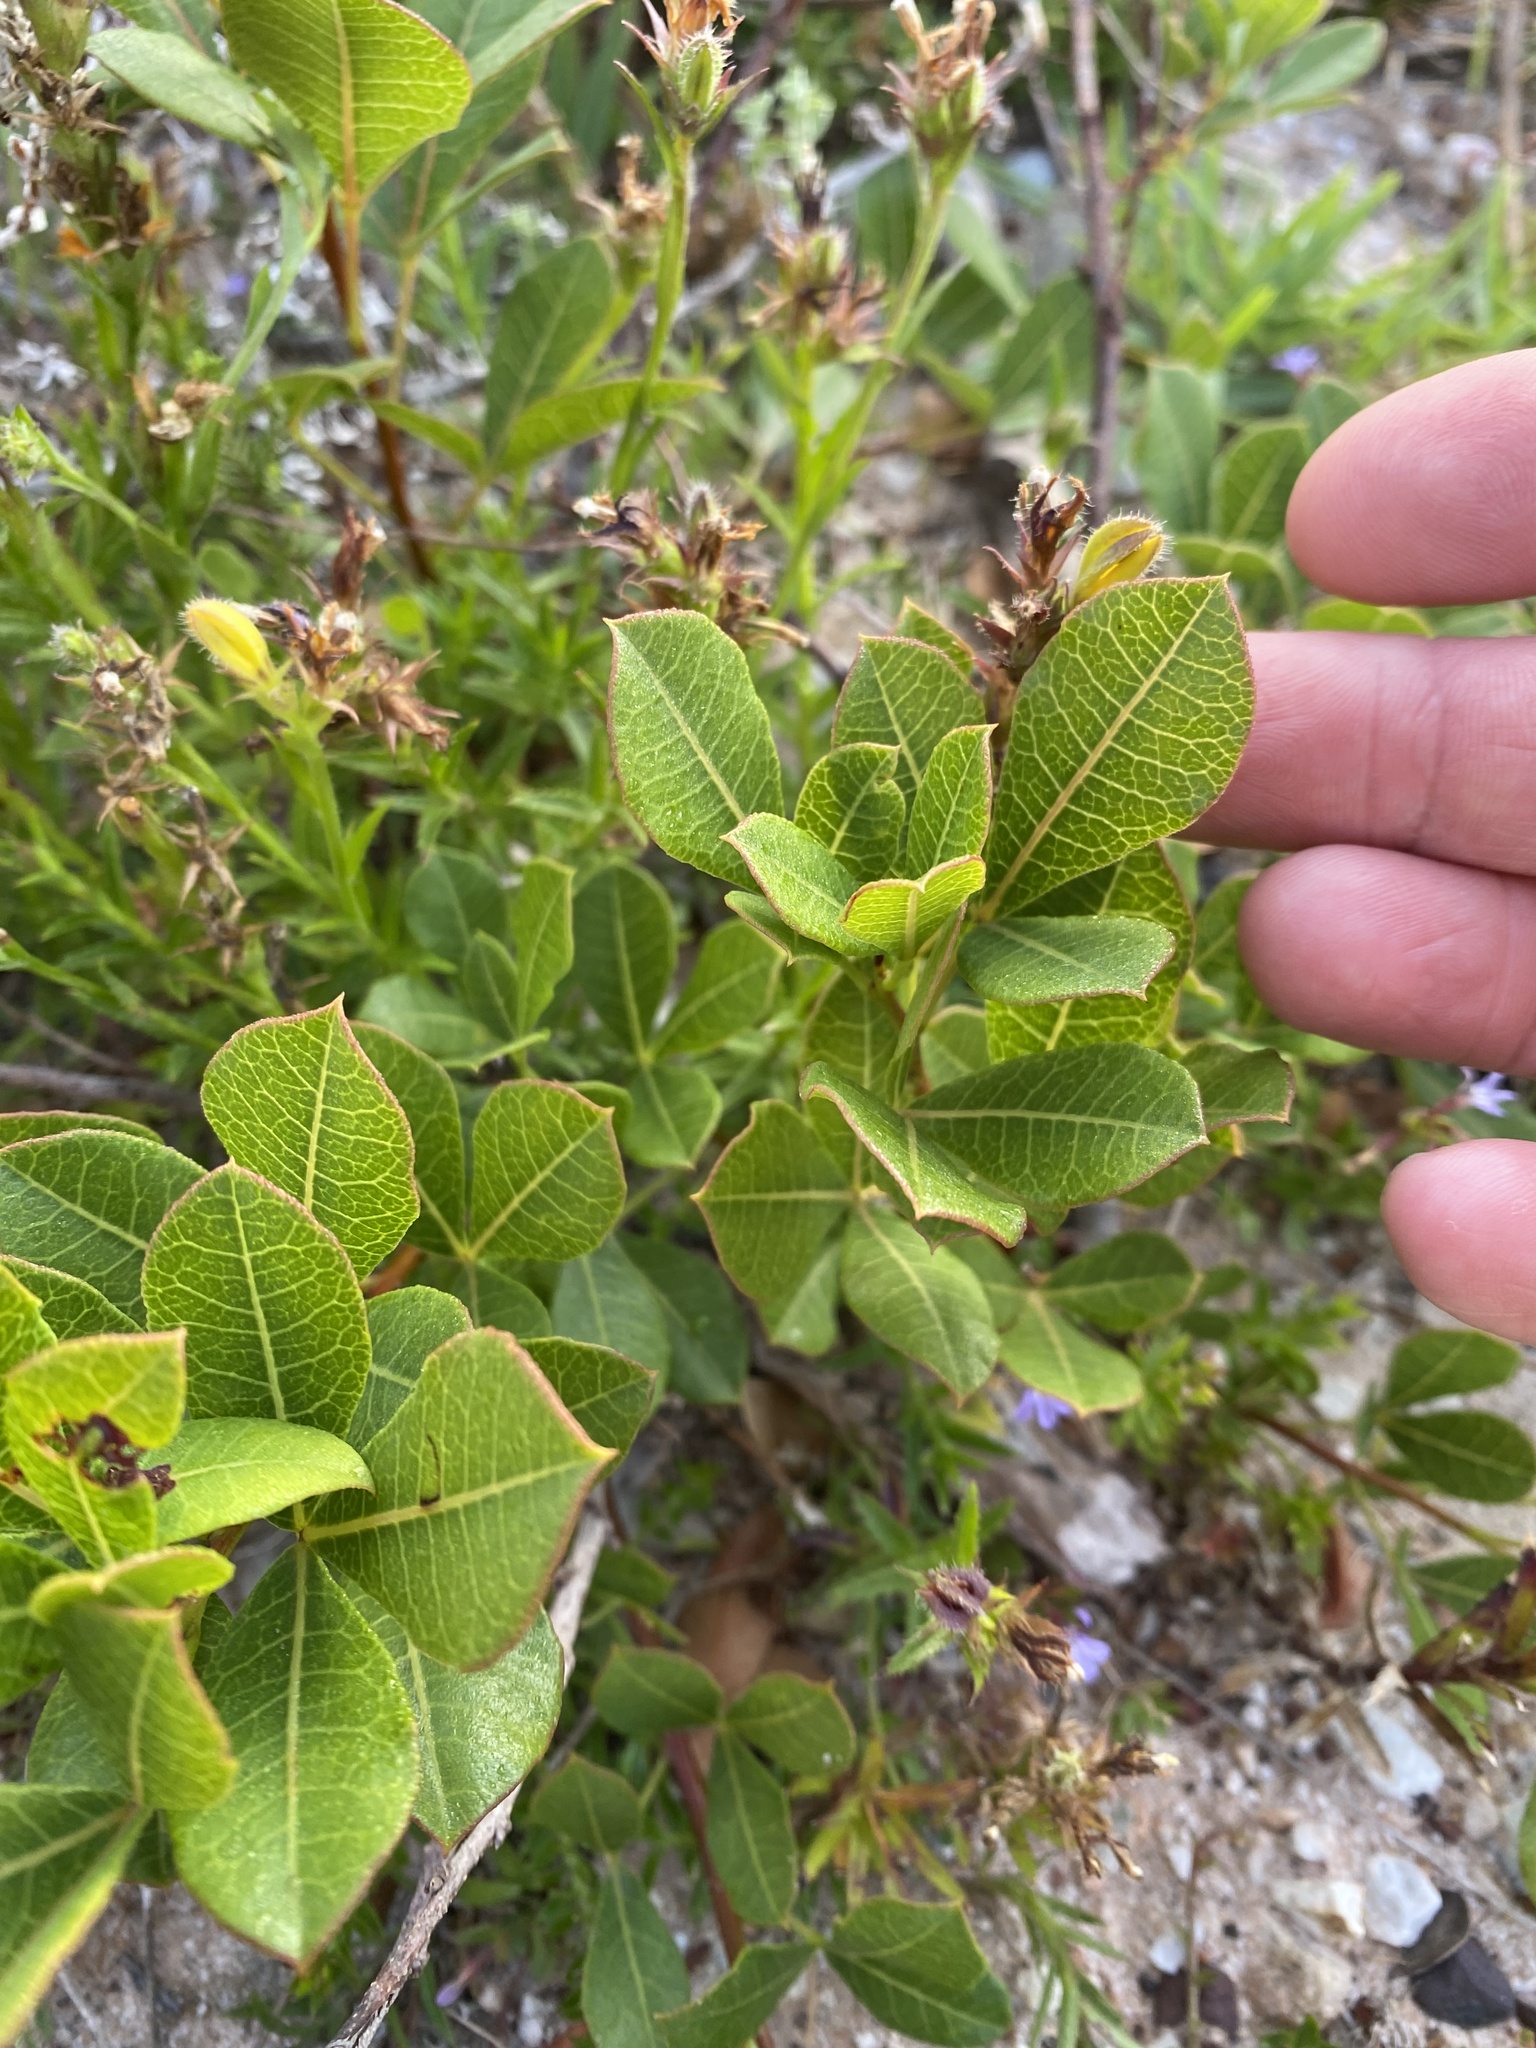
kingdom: Plantae
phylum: Tracheophyta
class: Magnoliopsida
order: Sapindales
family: Anacardiaceae
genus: Searsia
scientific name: Searsia laevigata
